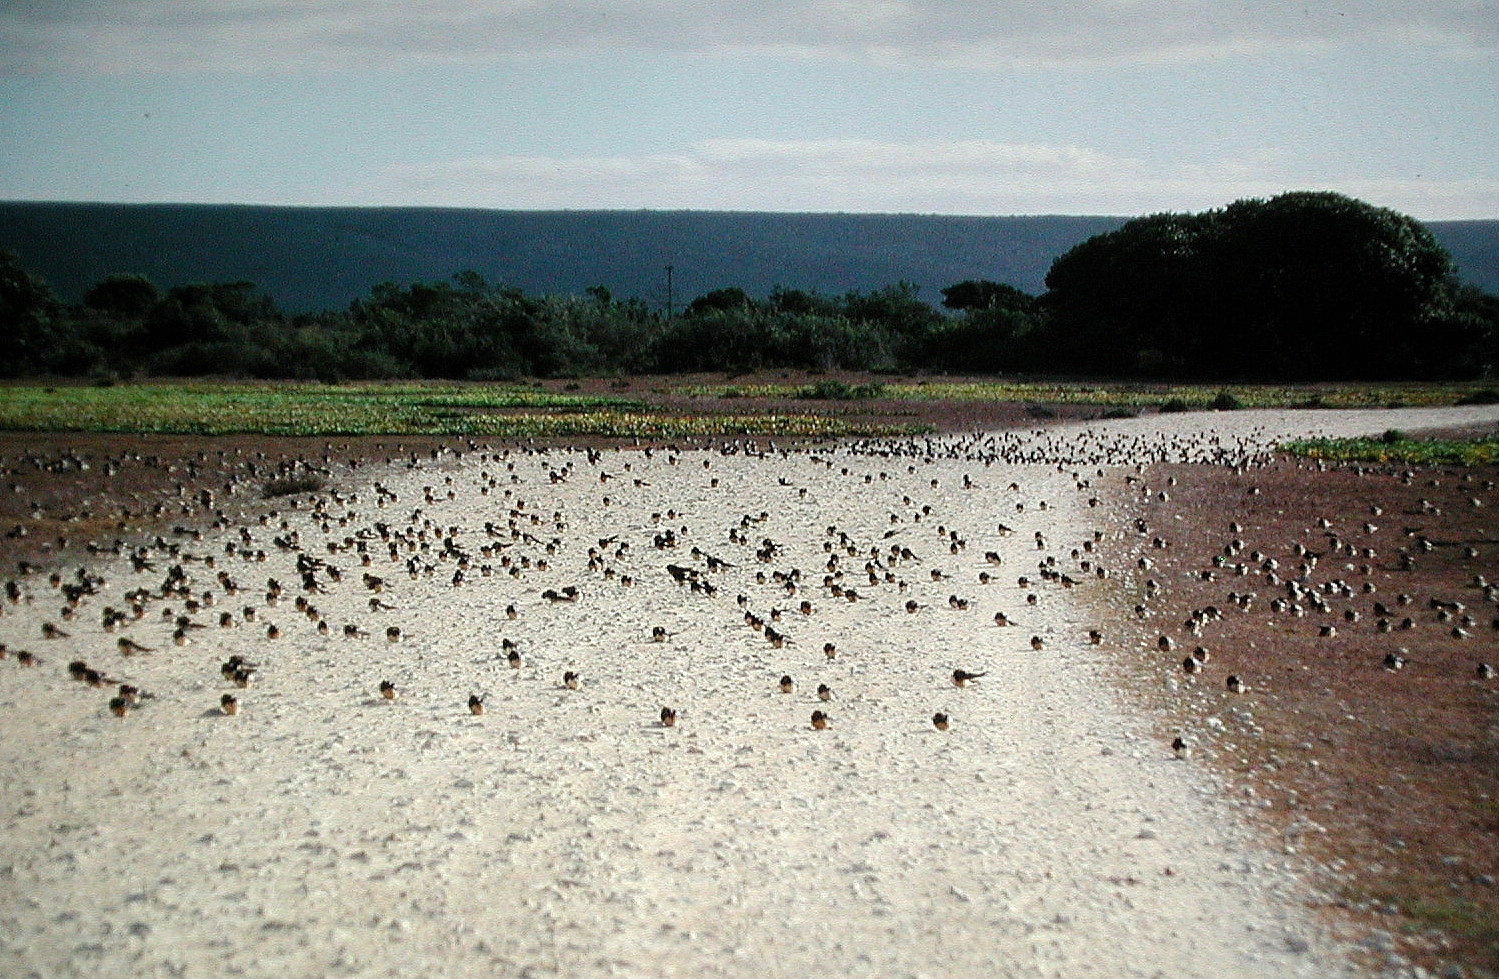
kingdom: Animalia
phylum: Chordata
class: Aves
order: Passeriformes
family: Hirundinidae
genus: Hirundo
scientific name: Hirundo rustica
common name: Barn swallow
